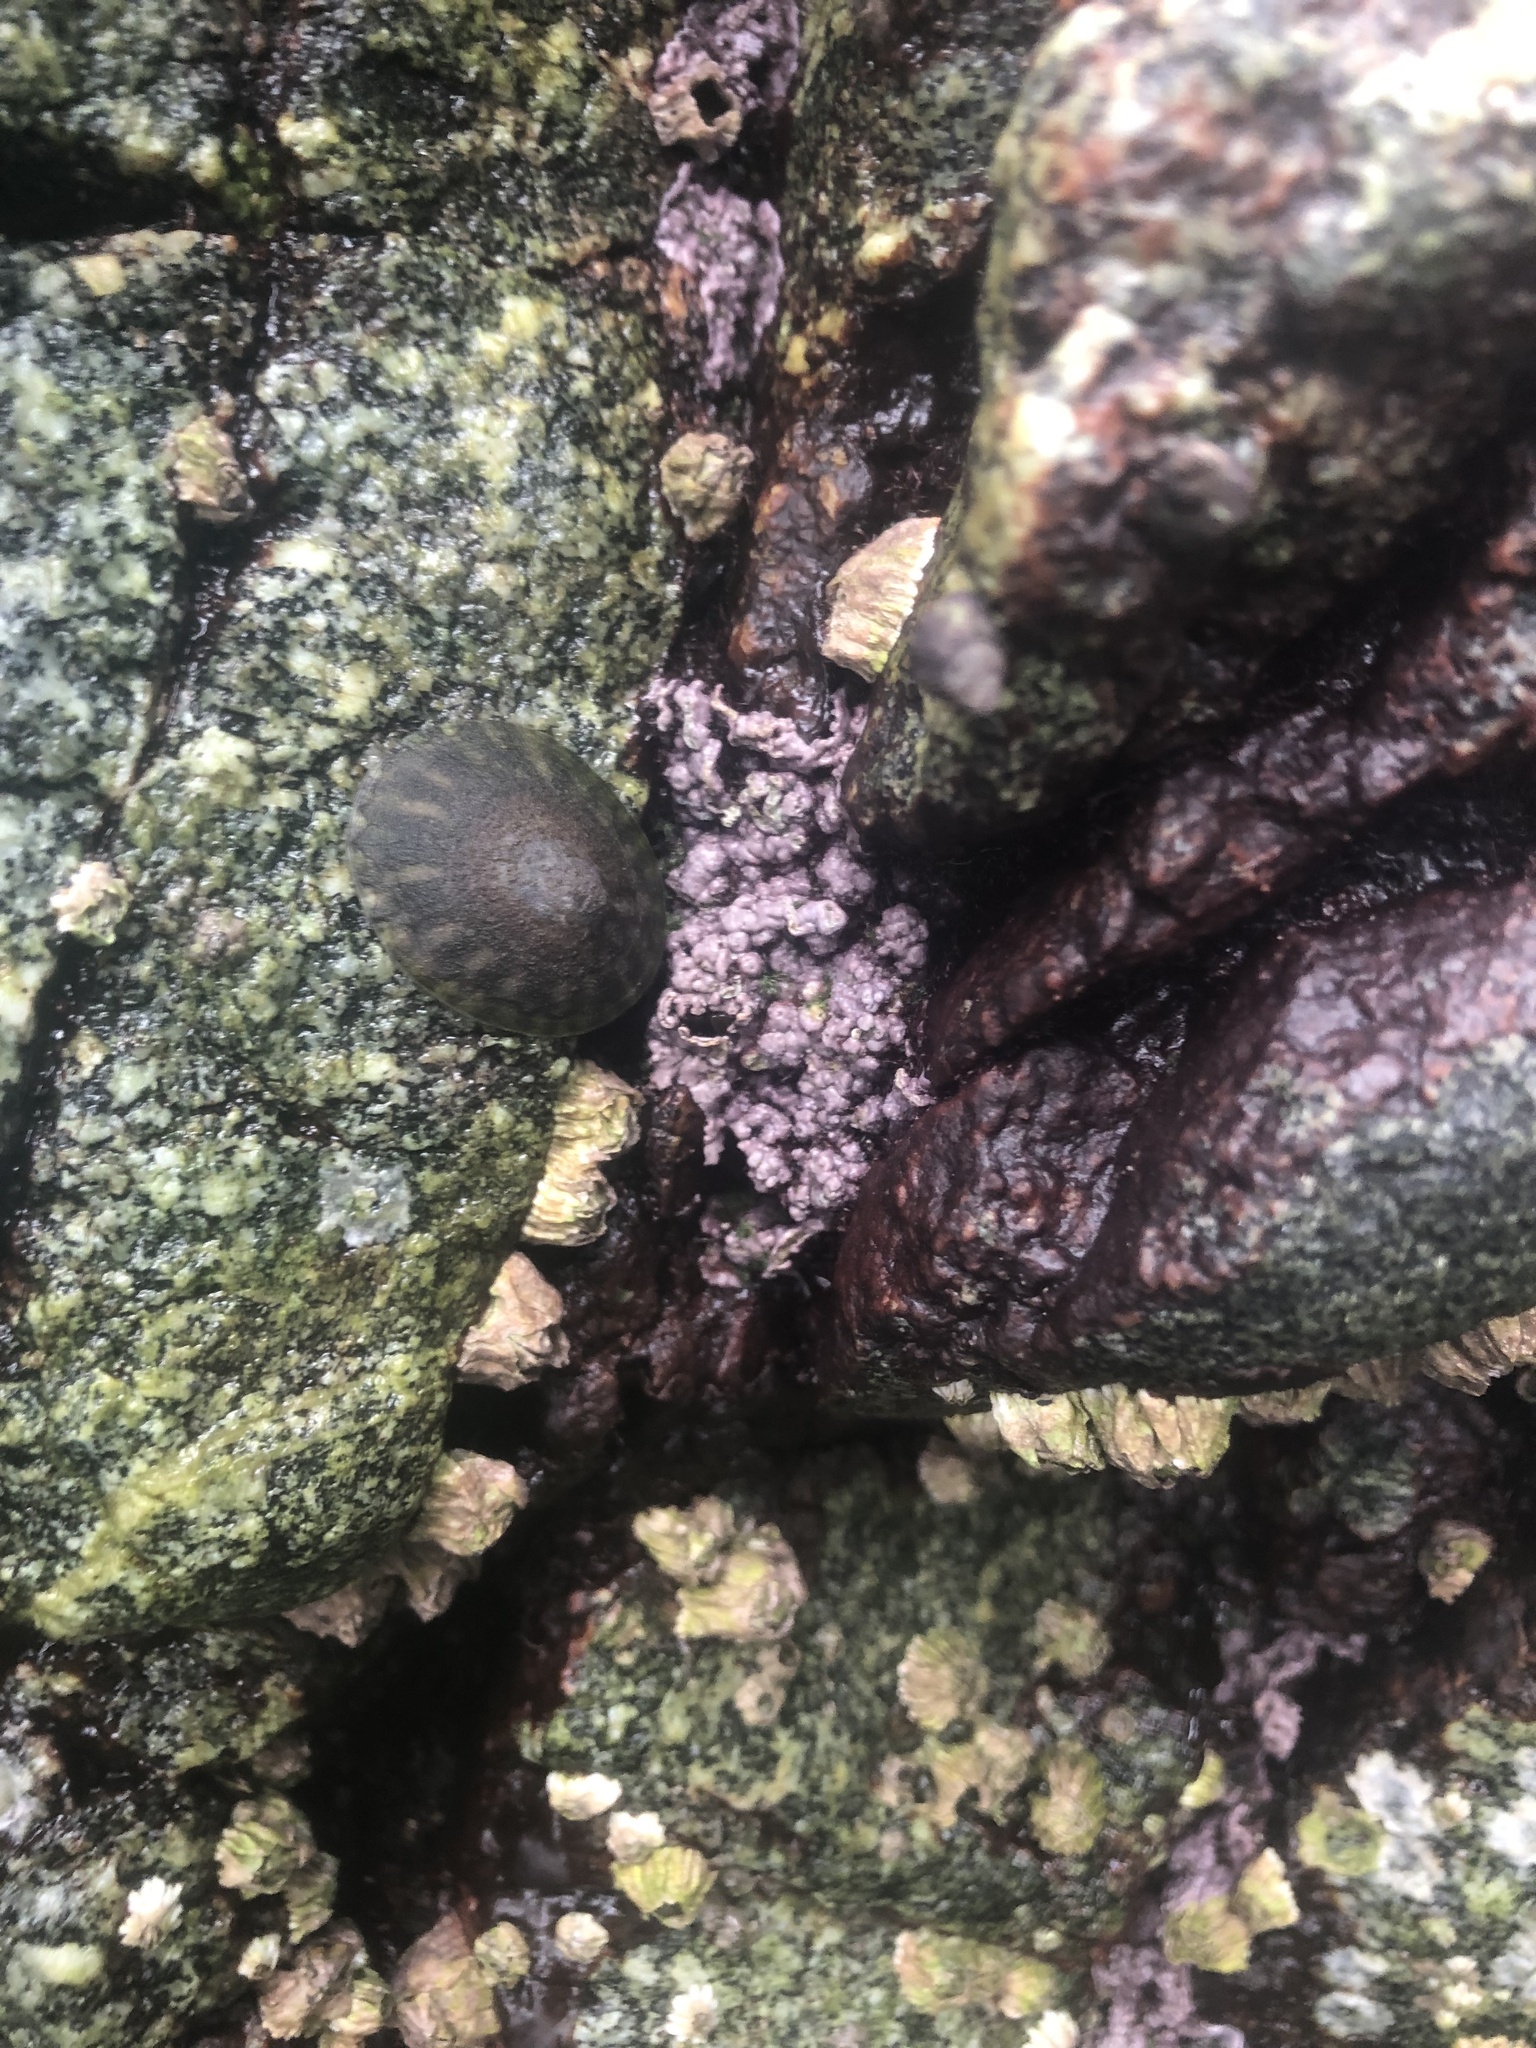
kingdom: Plantae
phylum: Rhodophyta
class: Florideophyceae
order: Corallinales
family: Corallinaceae
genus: Chamberlainium
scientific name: Chamberlainium tumidum
